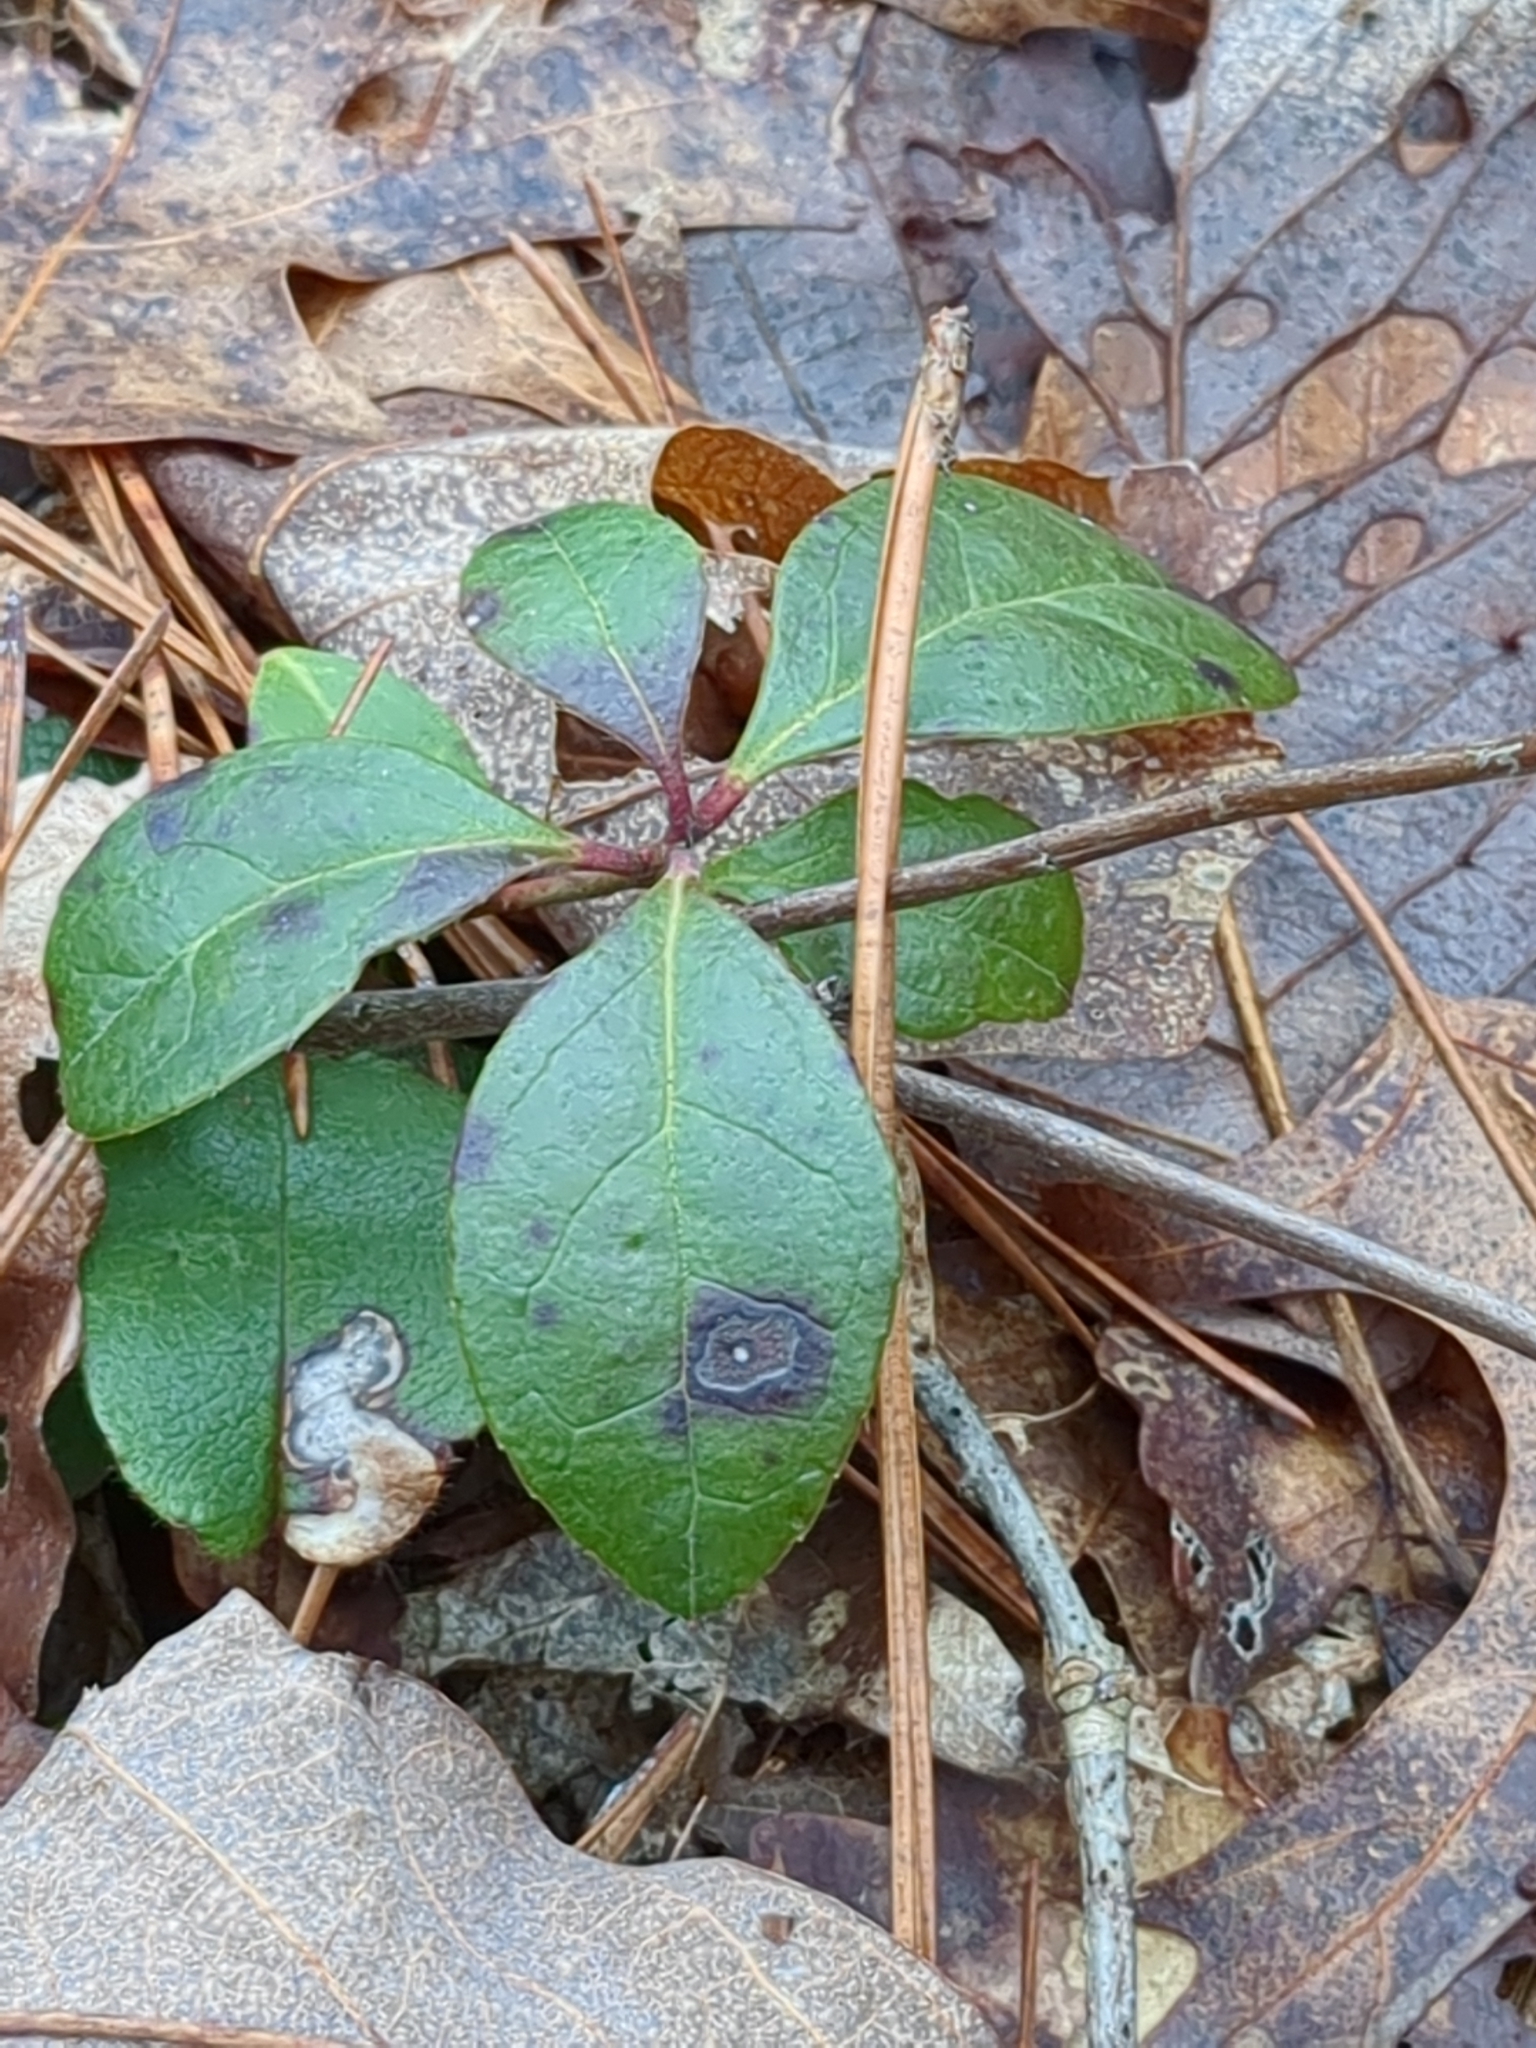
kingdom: Plantae
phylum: Tracheophyta
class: Magnoliopsida
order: Ericales
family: Ericaceae
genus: Gaultheria
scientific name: Gaultheria procumbens
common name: Checkerberry
